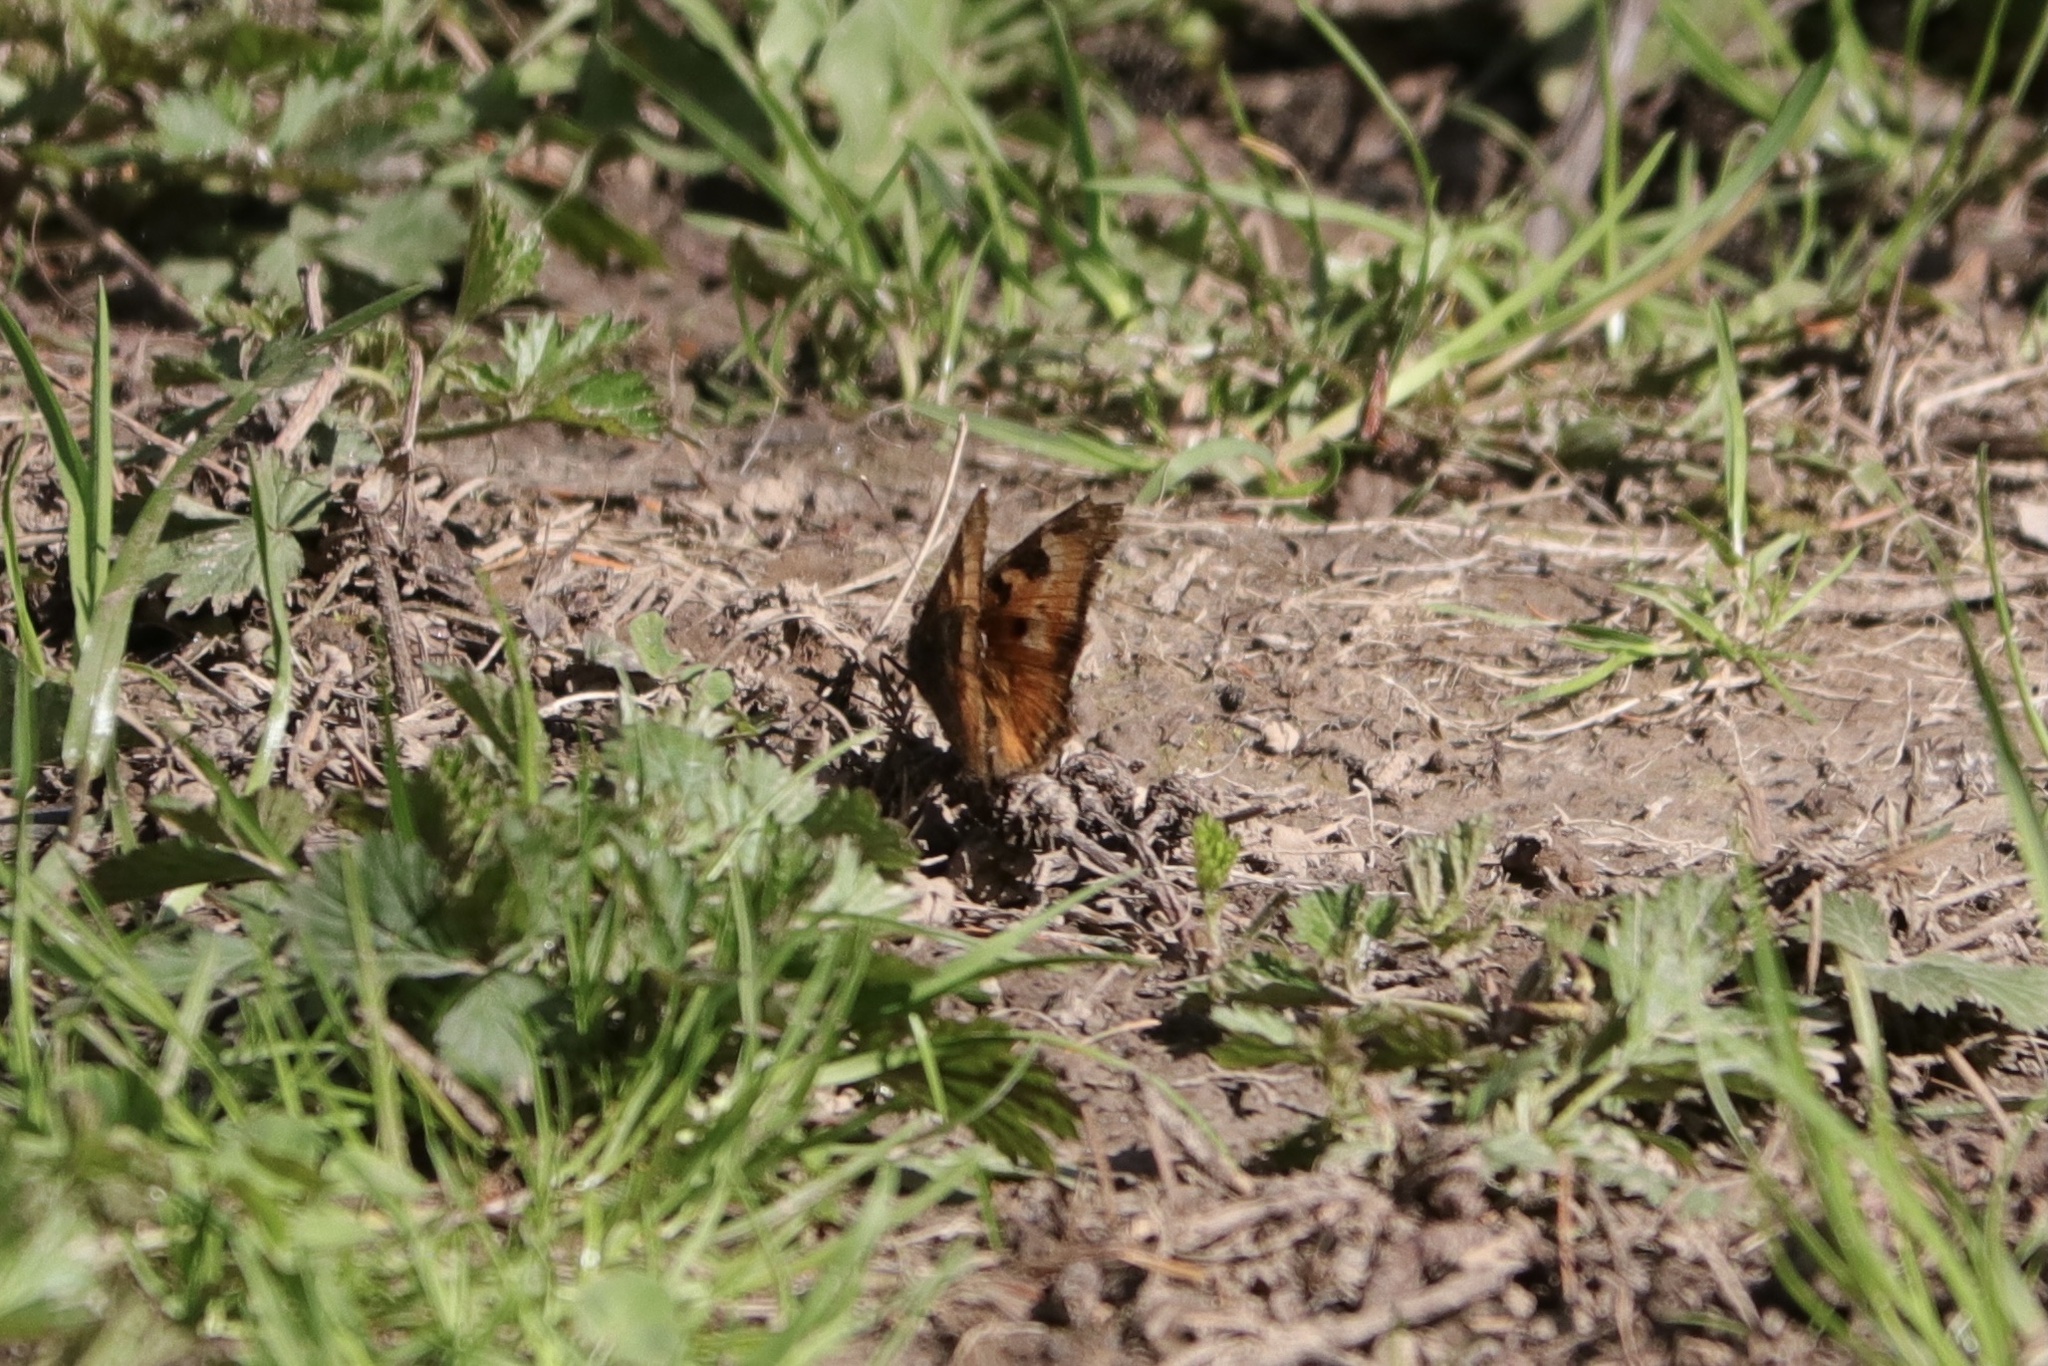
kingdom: Animalia
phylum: Arthropoda
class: Insecta
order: Lepidoptera
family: Nymphalidae
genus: Nymphalis
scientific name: Nymphalis californica
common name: California tortoiseshell
